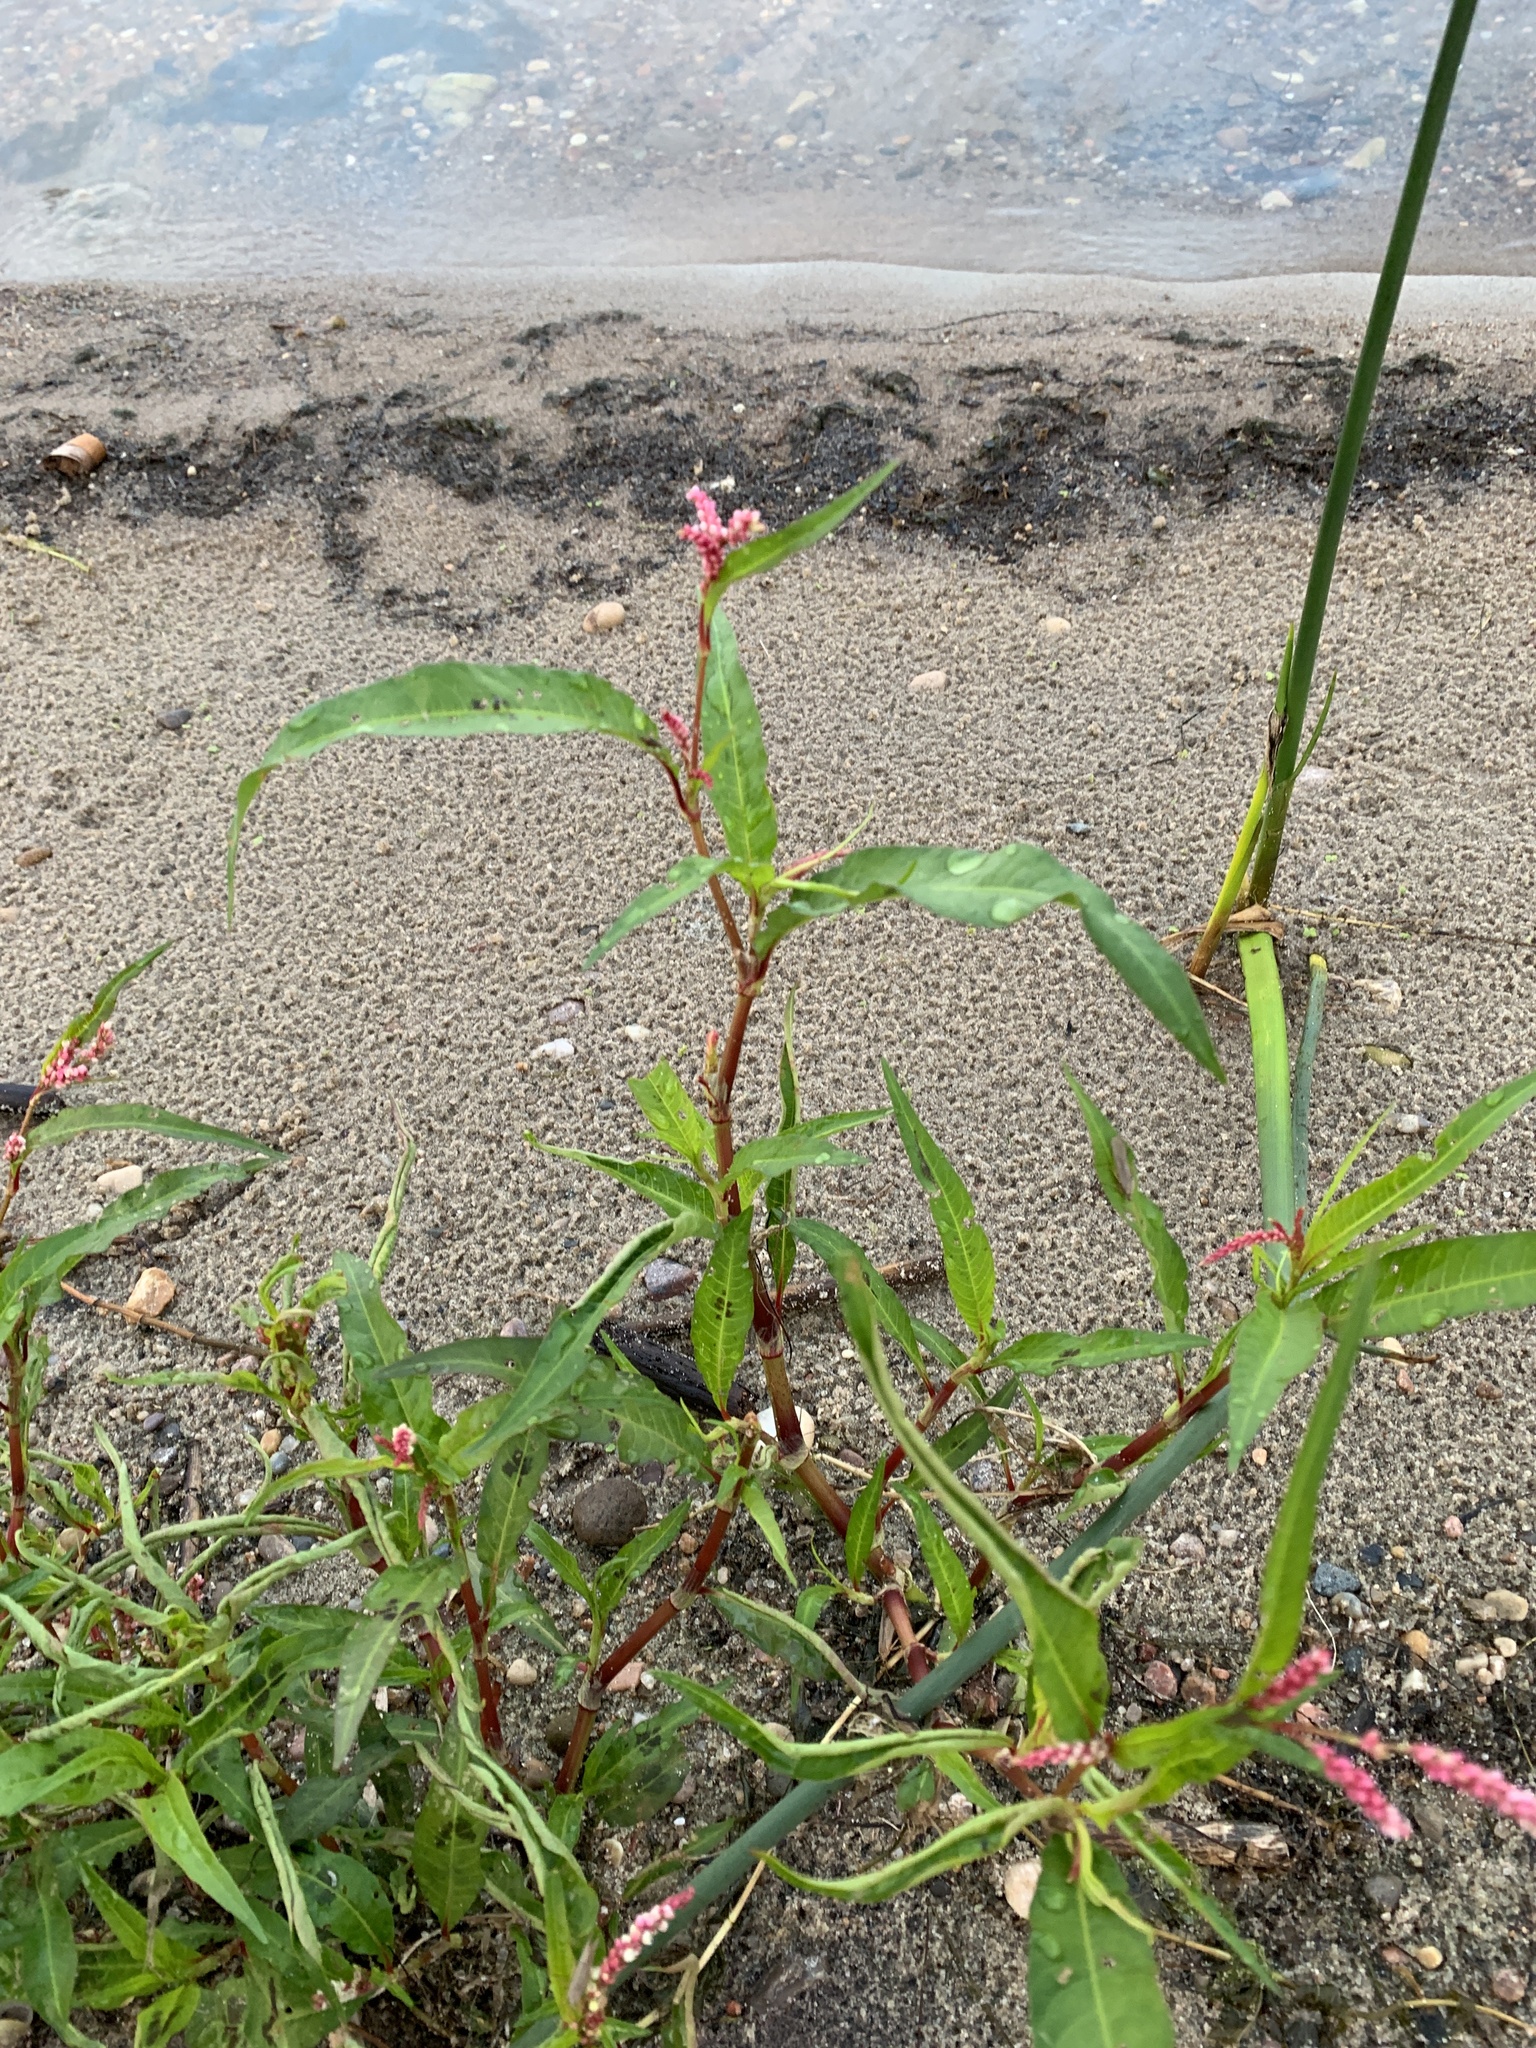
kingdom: Plantae
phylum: Tracheophyta
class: Magnoliopsida
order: Caryophyllales
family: Polygonaceae
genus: Persicaria
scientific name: Persicaria maculosa
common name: Redshank
